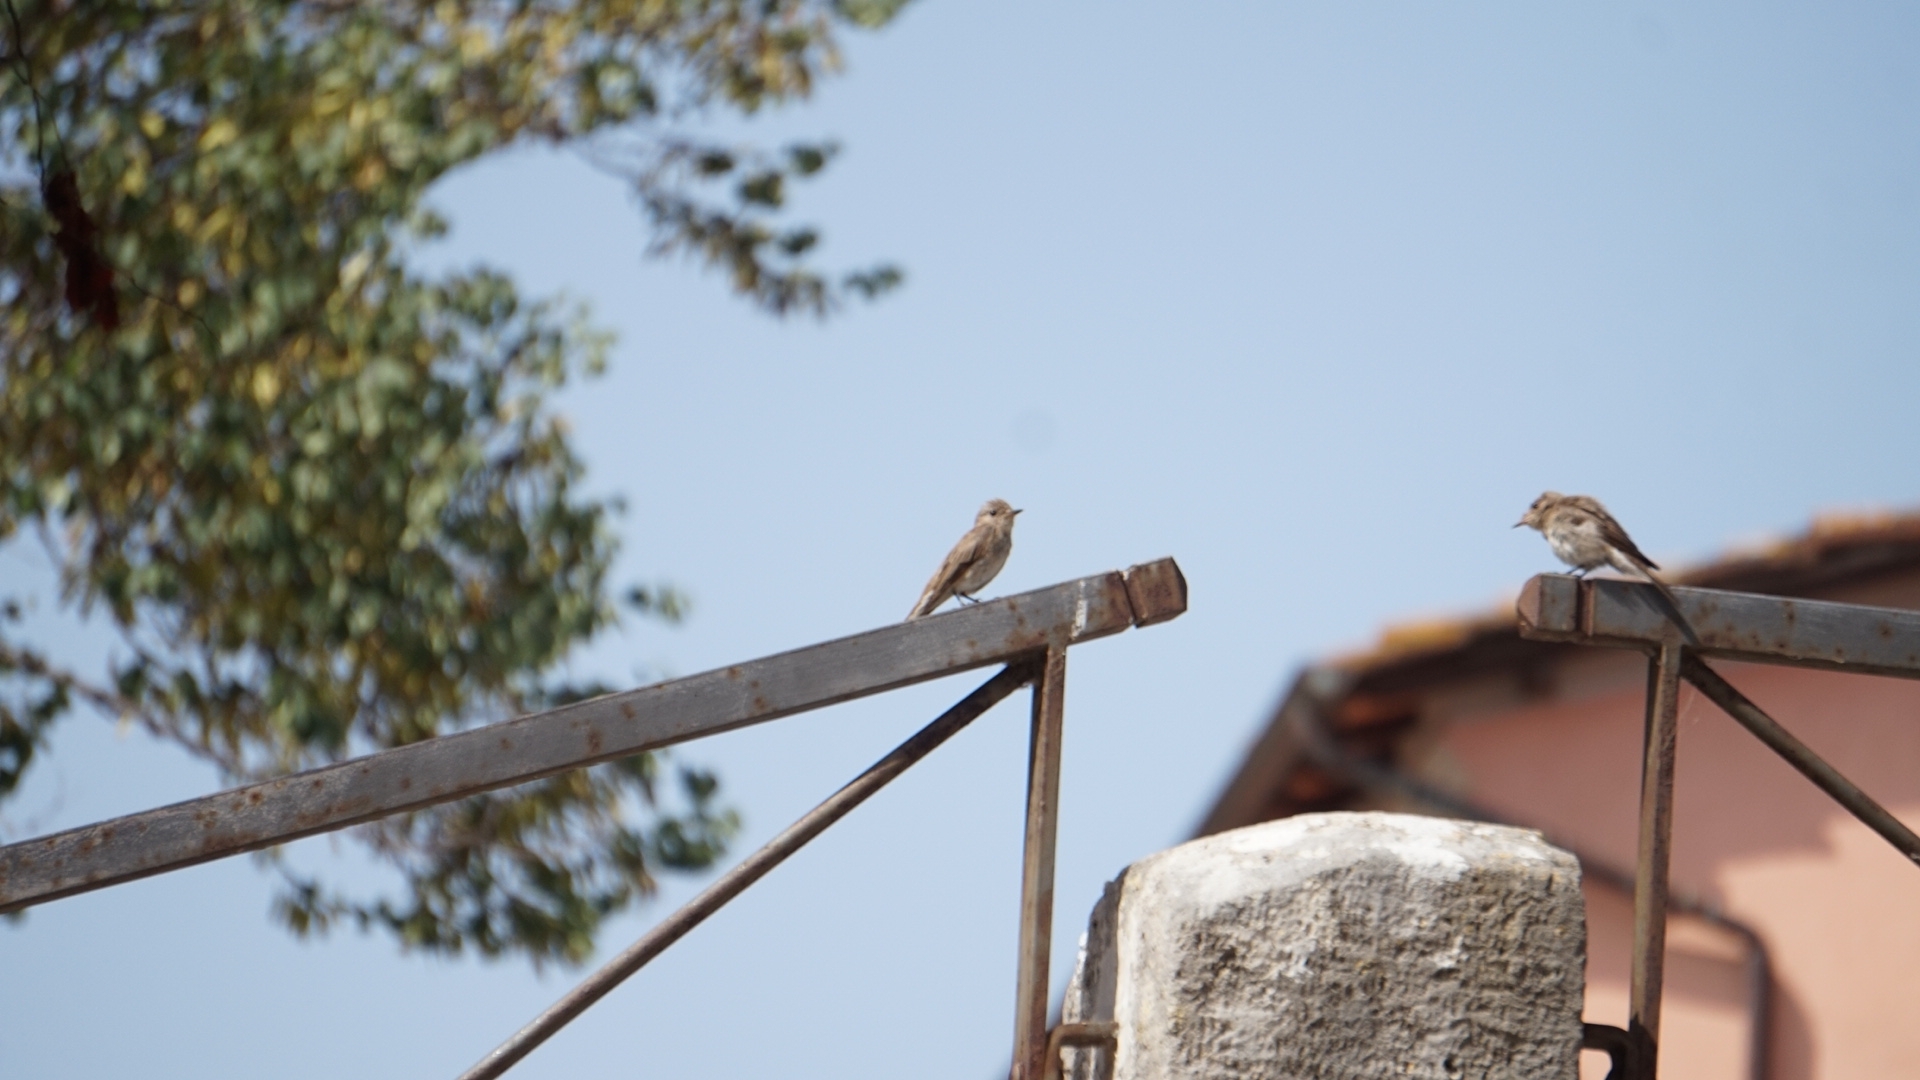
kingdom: Animalia
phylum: Chordata
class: Aves
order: Passeriformes
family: Muscicapidae
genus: Muscicapa
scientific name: Muscicapa striata
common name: Spotted flycatcher
